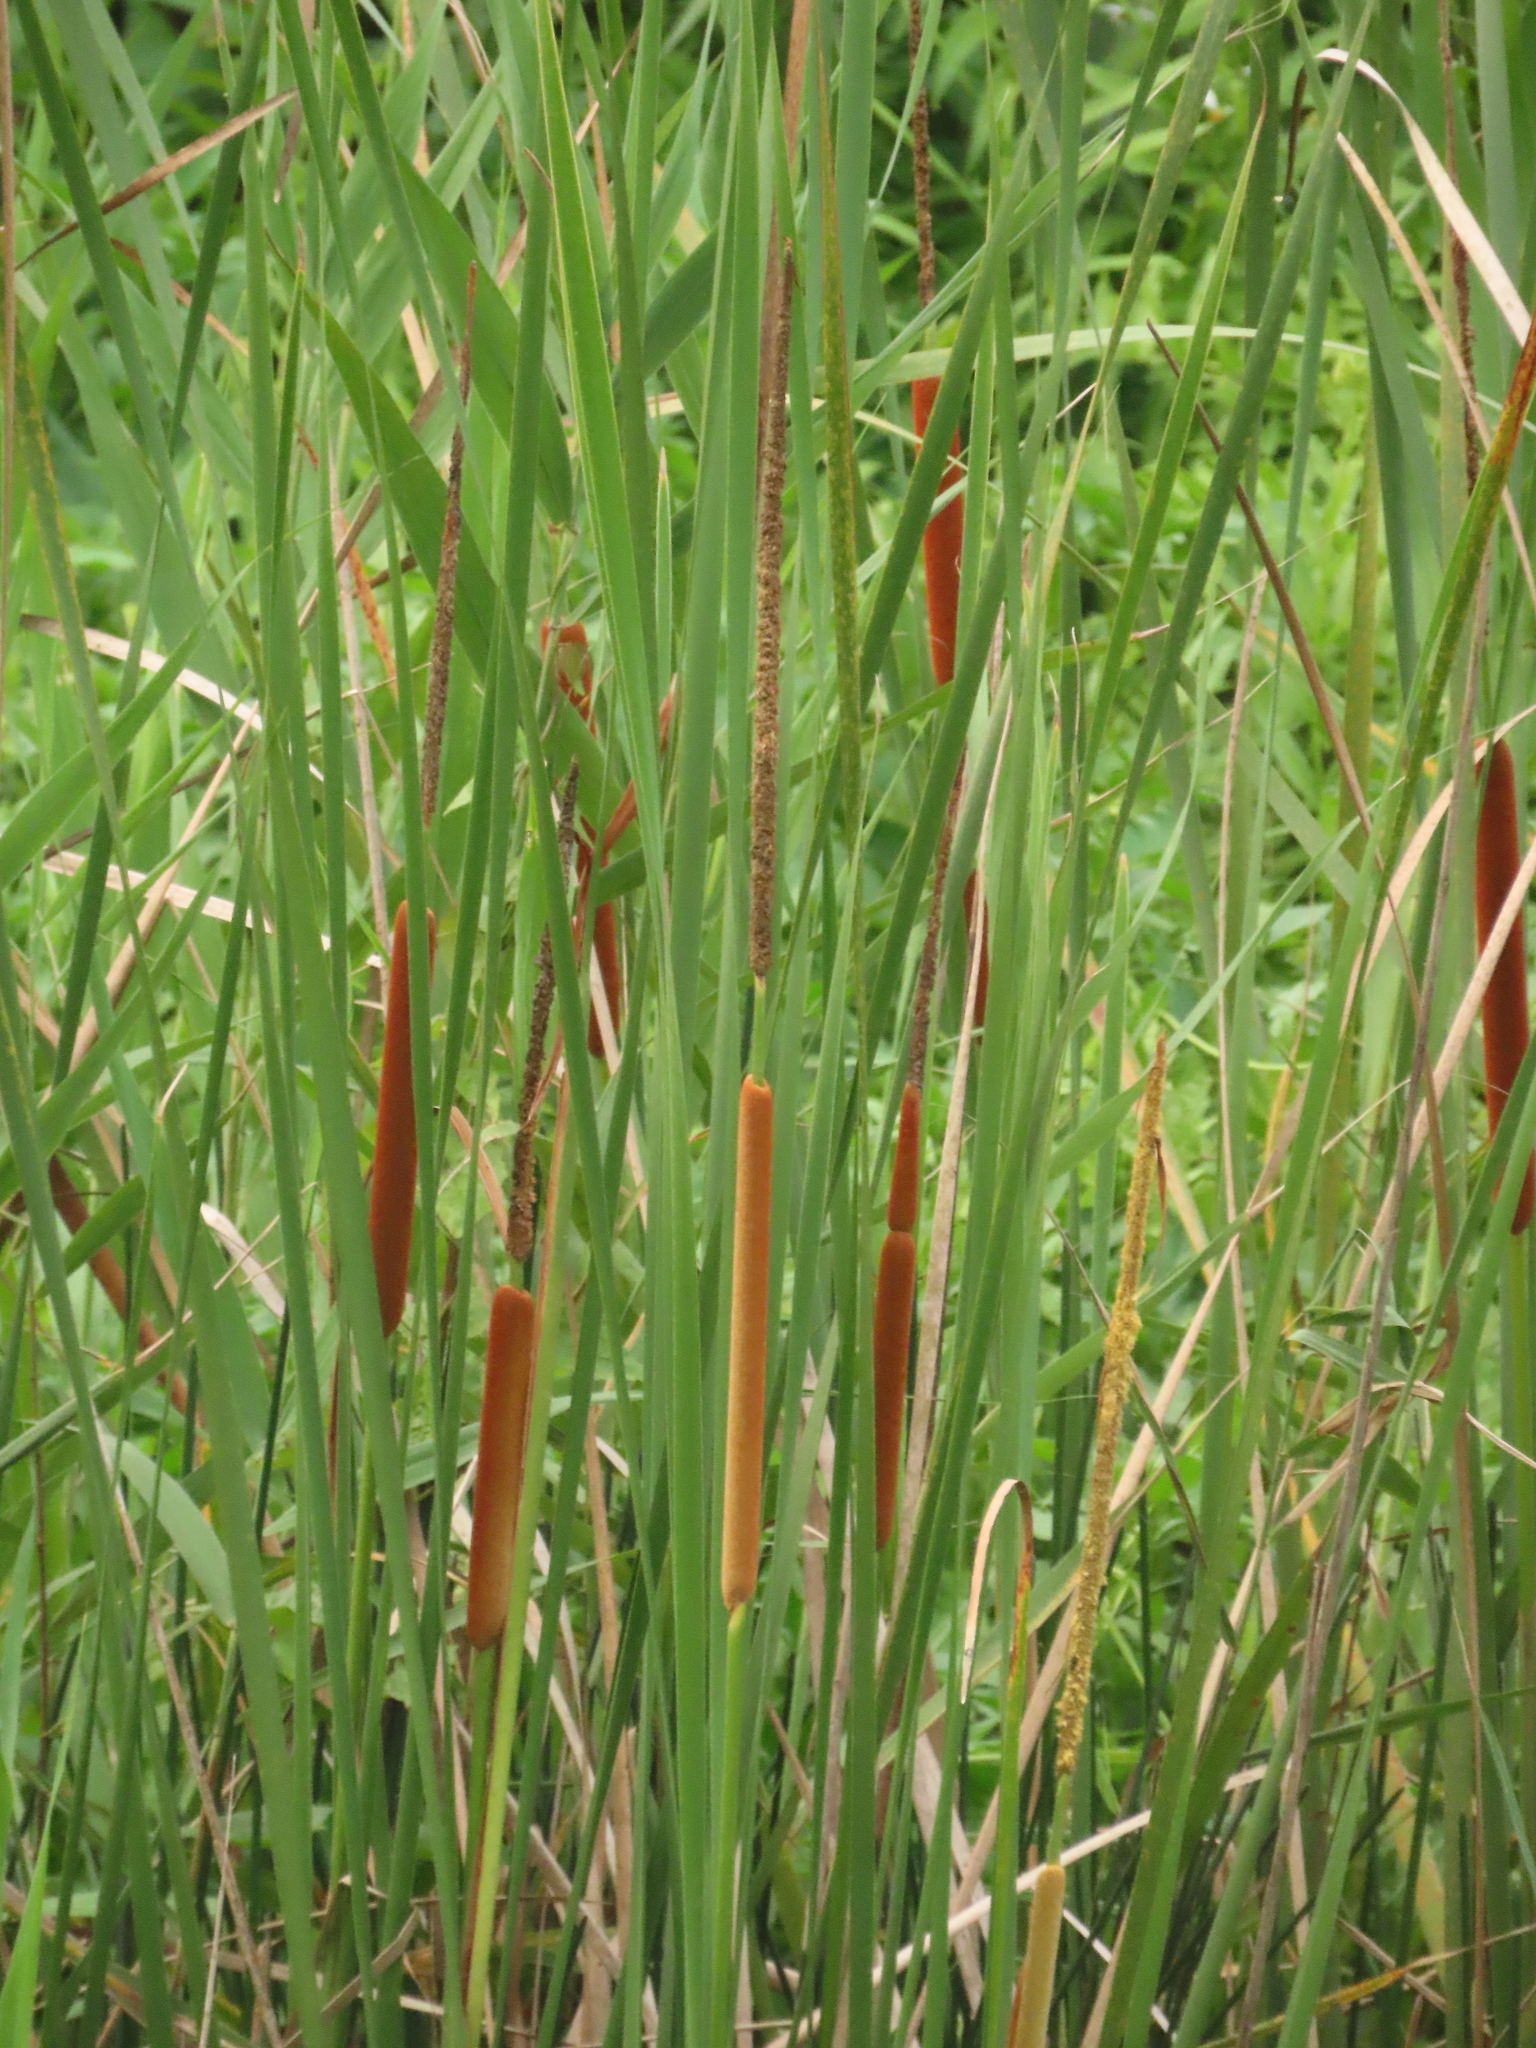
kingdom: Plantae
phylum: Tracheophyta
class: Liliopsida
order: Poales
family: Typhaceae
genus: Typha
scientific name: Typha angustifolia
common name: Lesser bulrush
